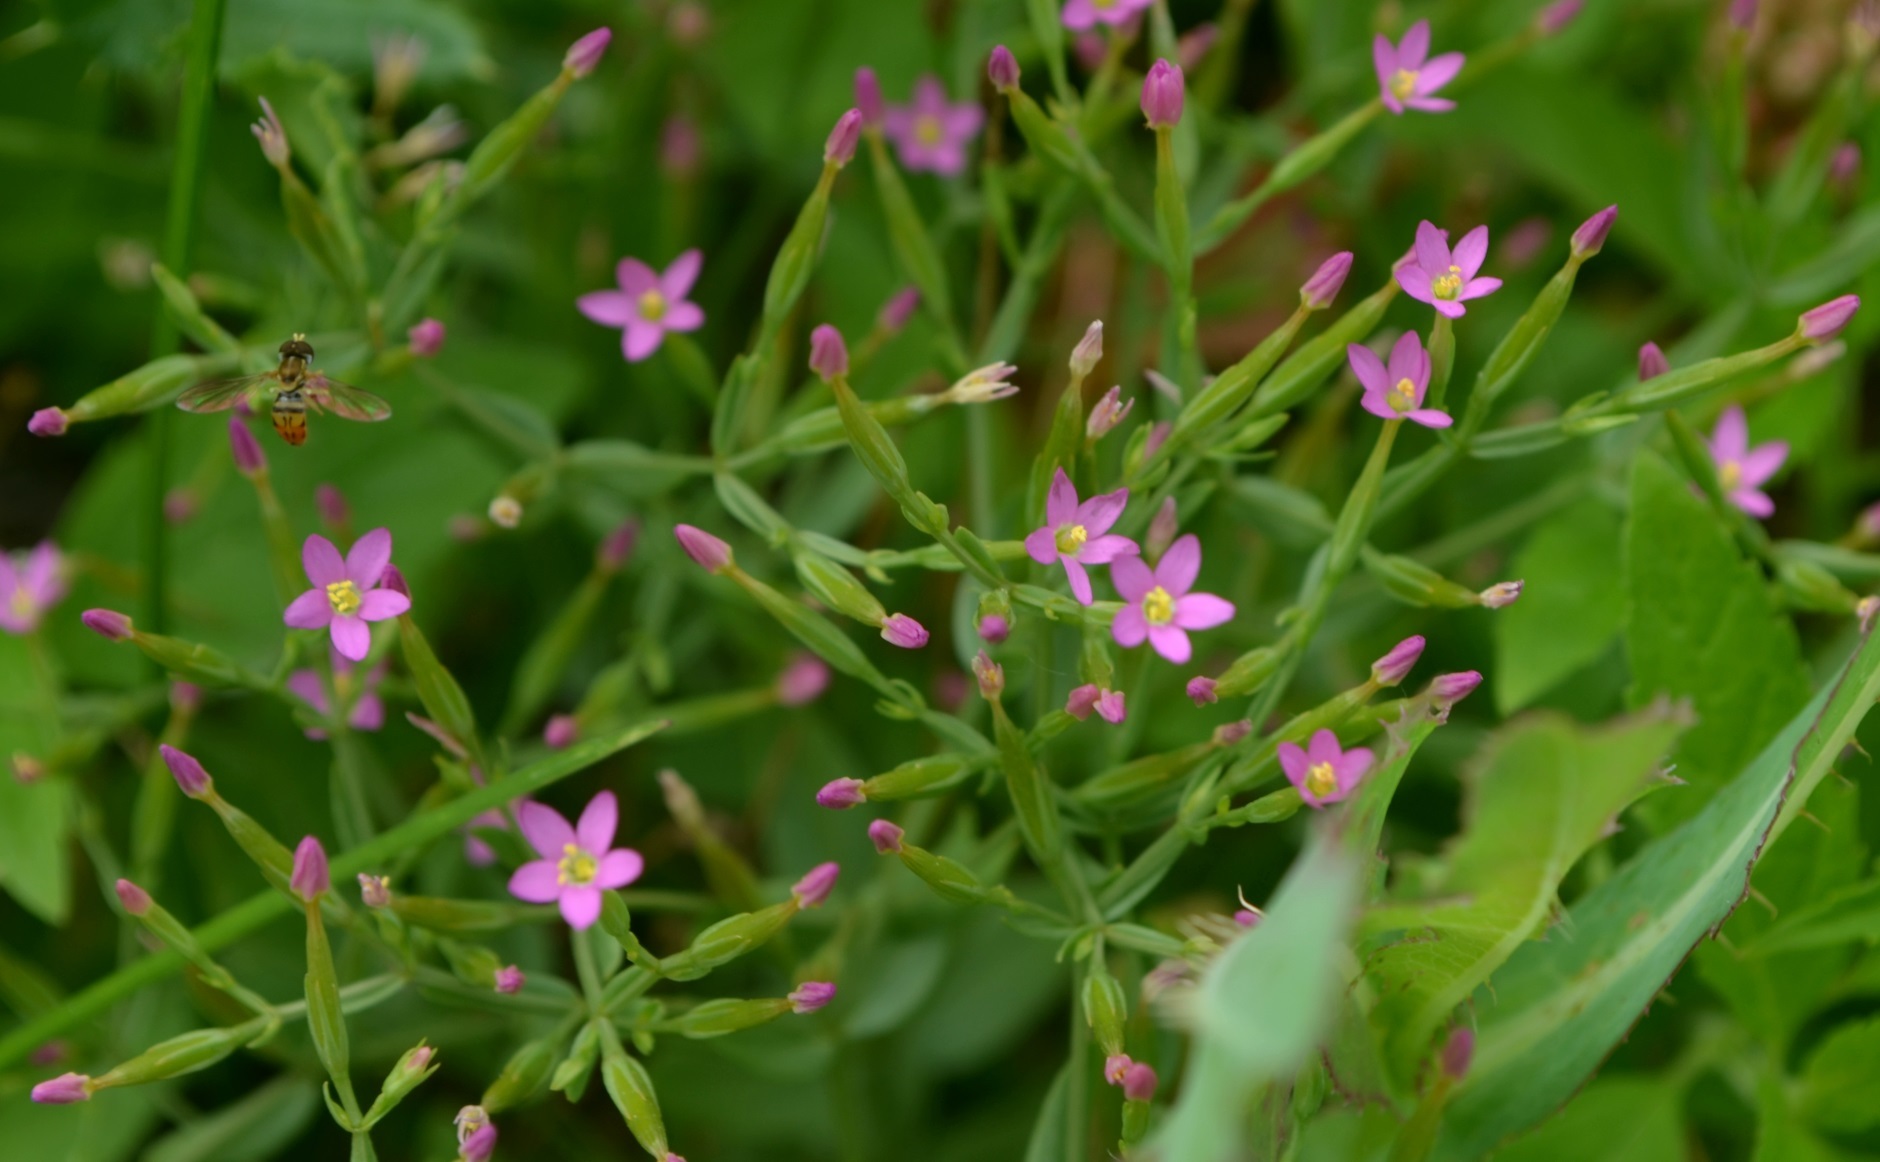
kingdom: Plantae
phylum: Tracheophyta
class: Magnoliopsida
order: Gentianales
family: Gentianaceae
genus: Centaurium
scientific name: Centaurium pulchellum
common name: Lesser centaury
